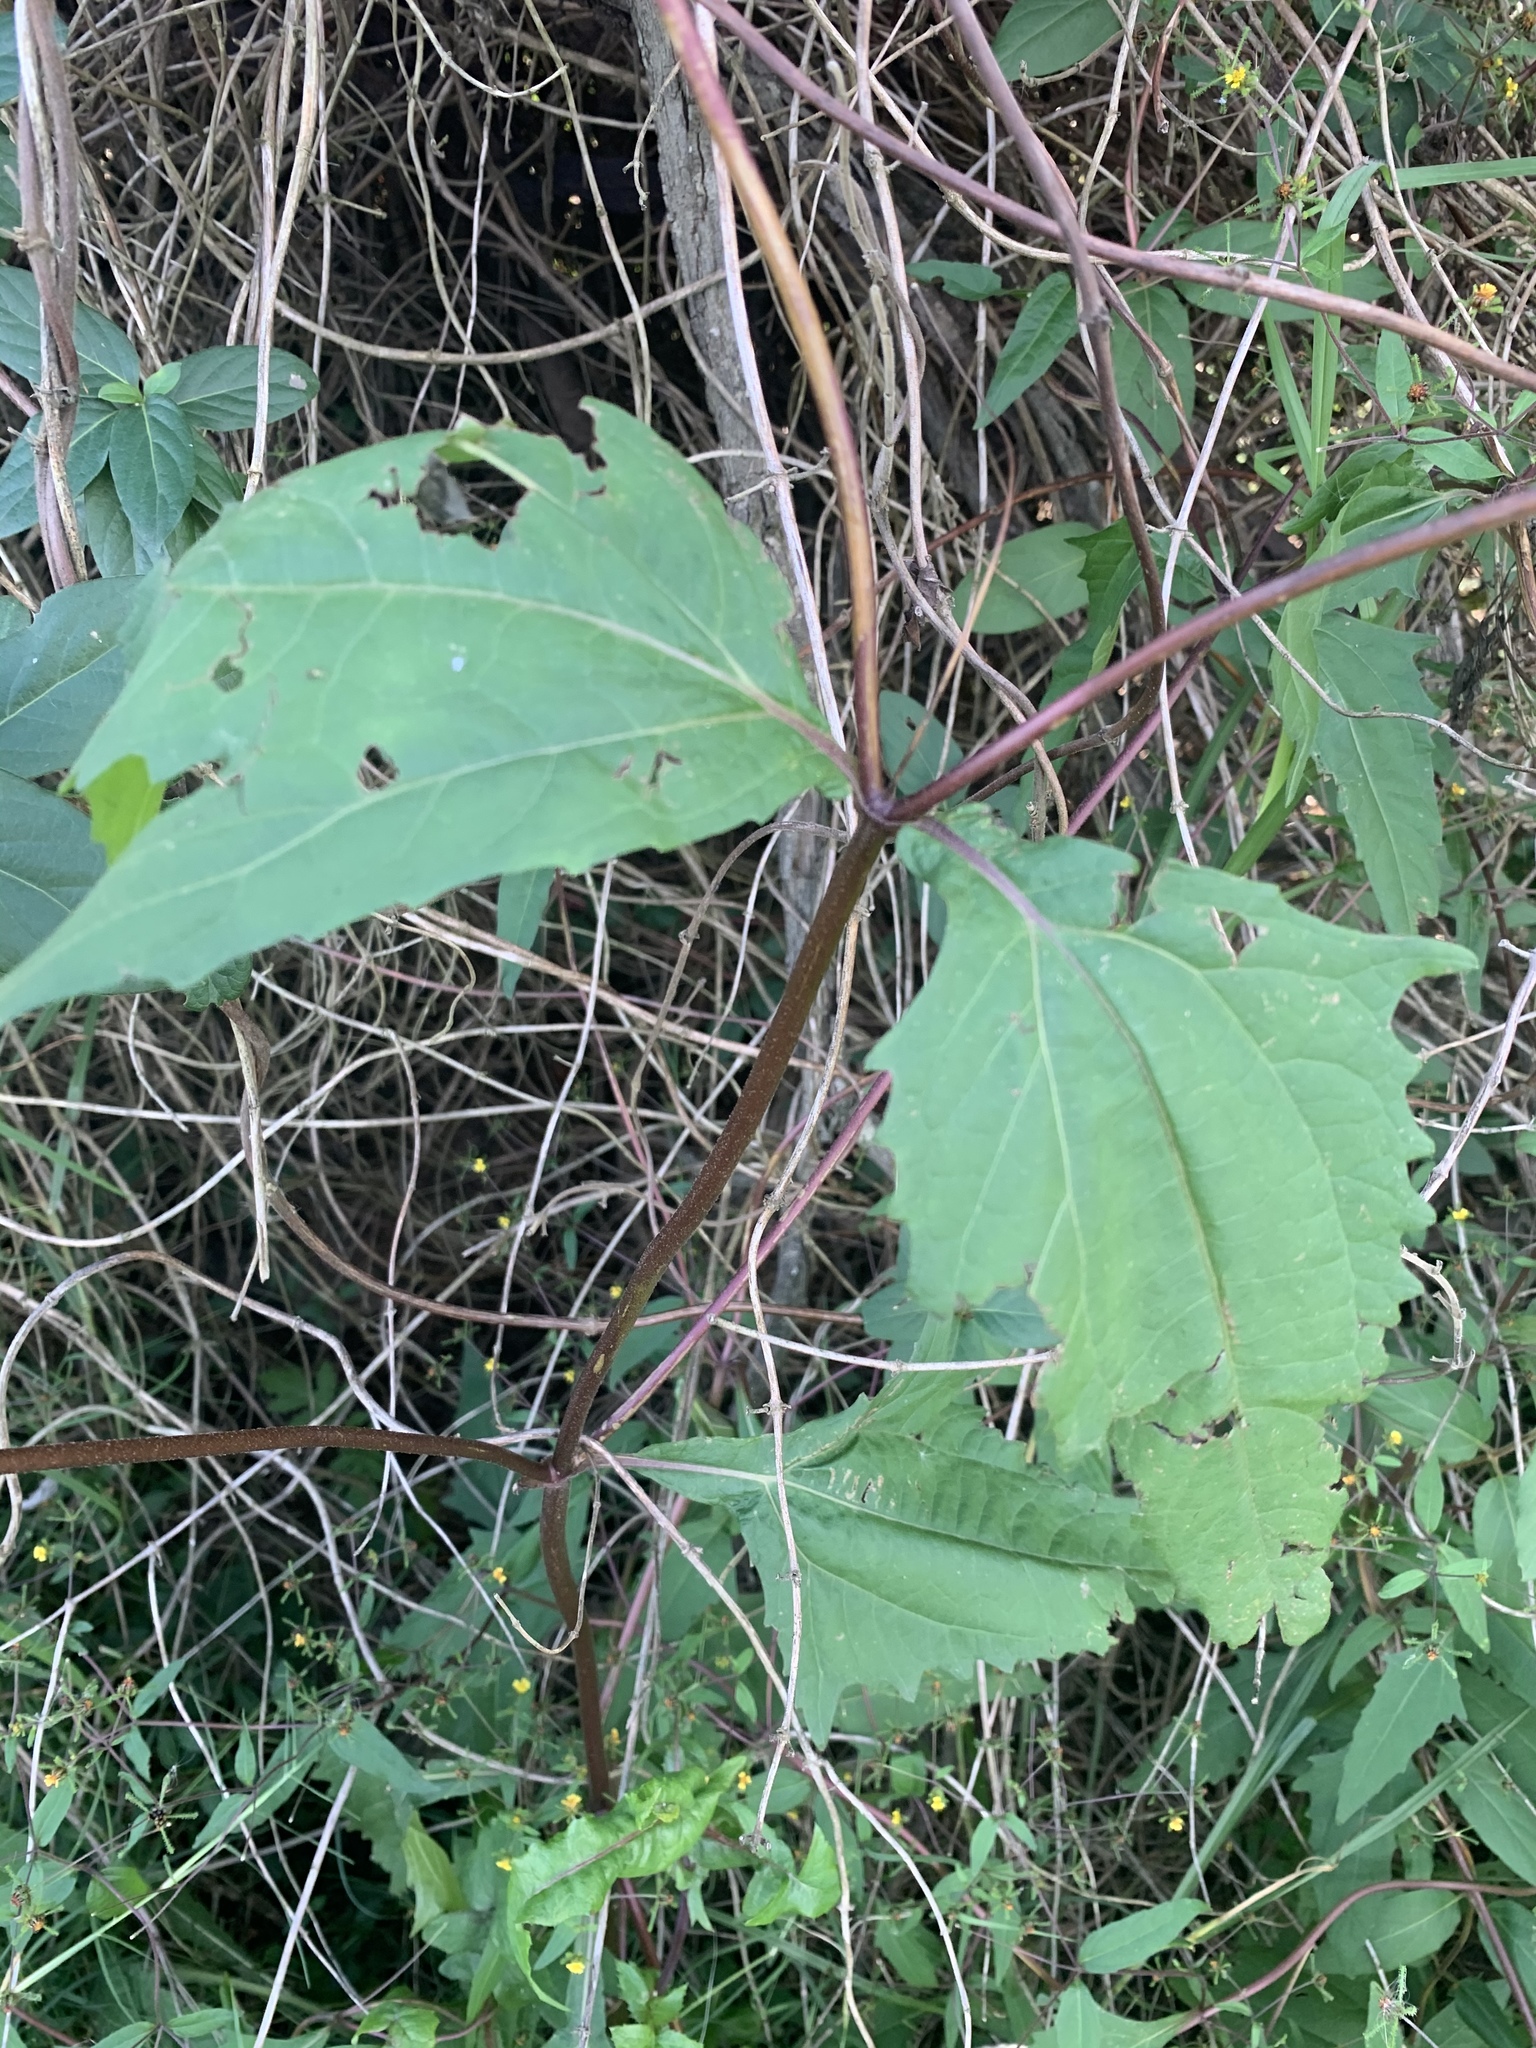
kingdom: Plantae
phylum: Tracheophyta
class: Magnoliopsida
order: Asterales
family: Asteraceae
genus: Sigesbeckia
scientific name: Sigesbeckia orientalis
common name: Eastern st paul's-wort
